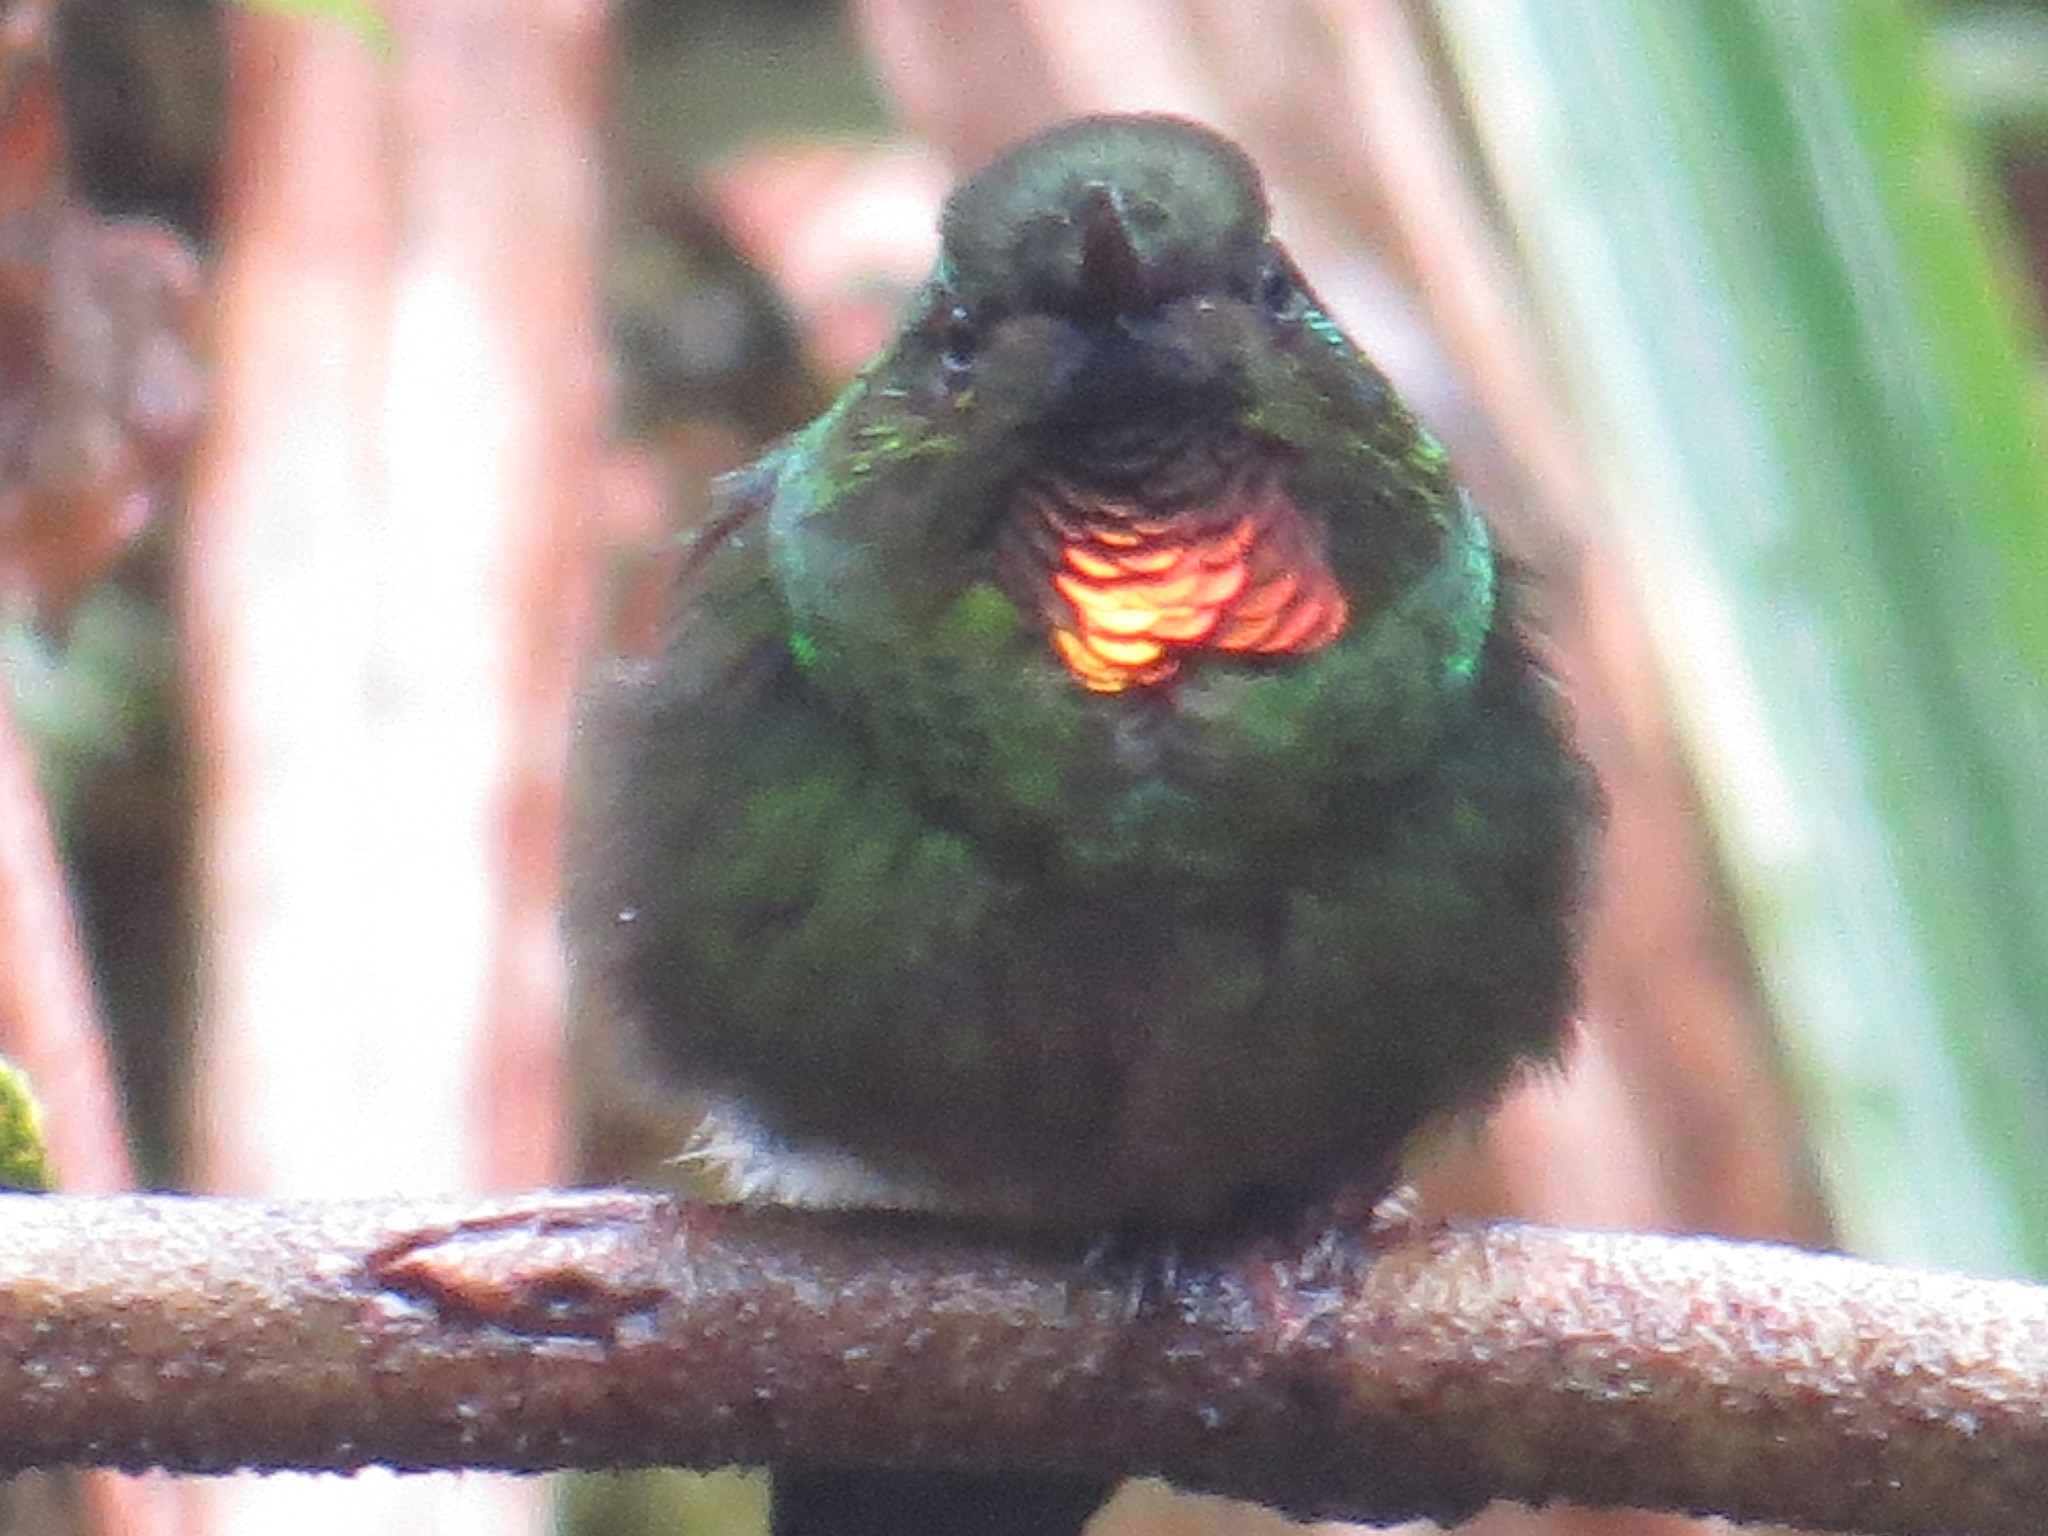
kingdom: Animalia
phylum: Chordata
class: Aves
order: Apodiformes
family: Trochilidae
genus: Heliangelus
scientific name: Heliangelus micraster
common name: Flame-throated sunangel
